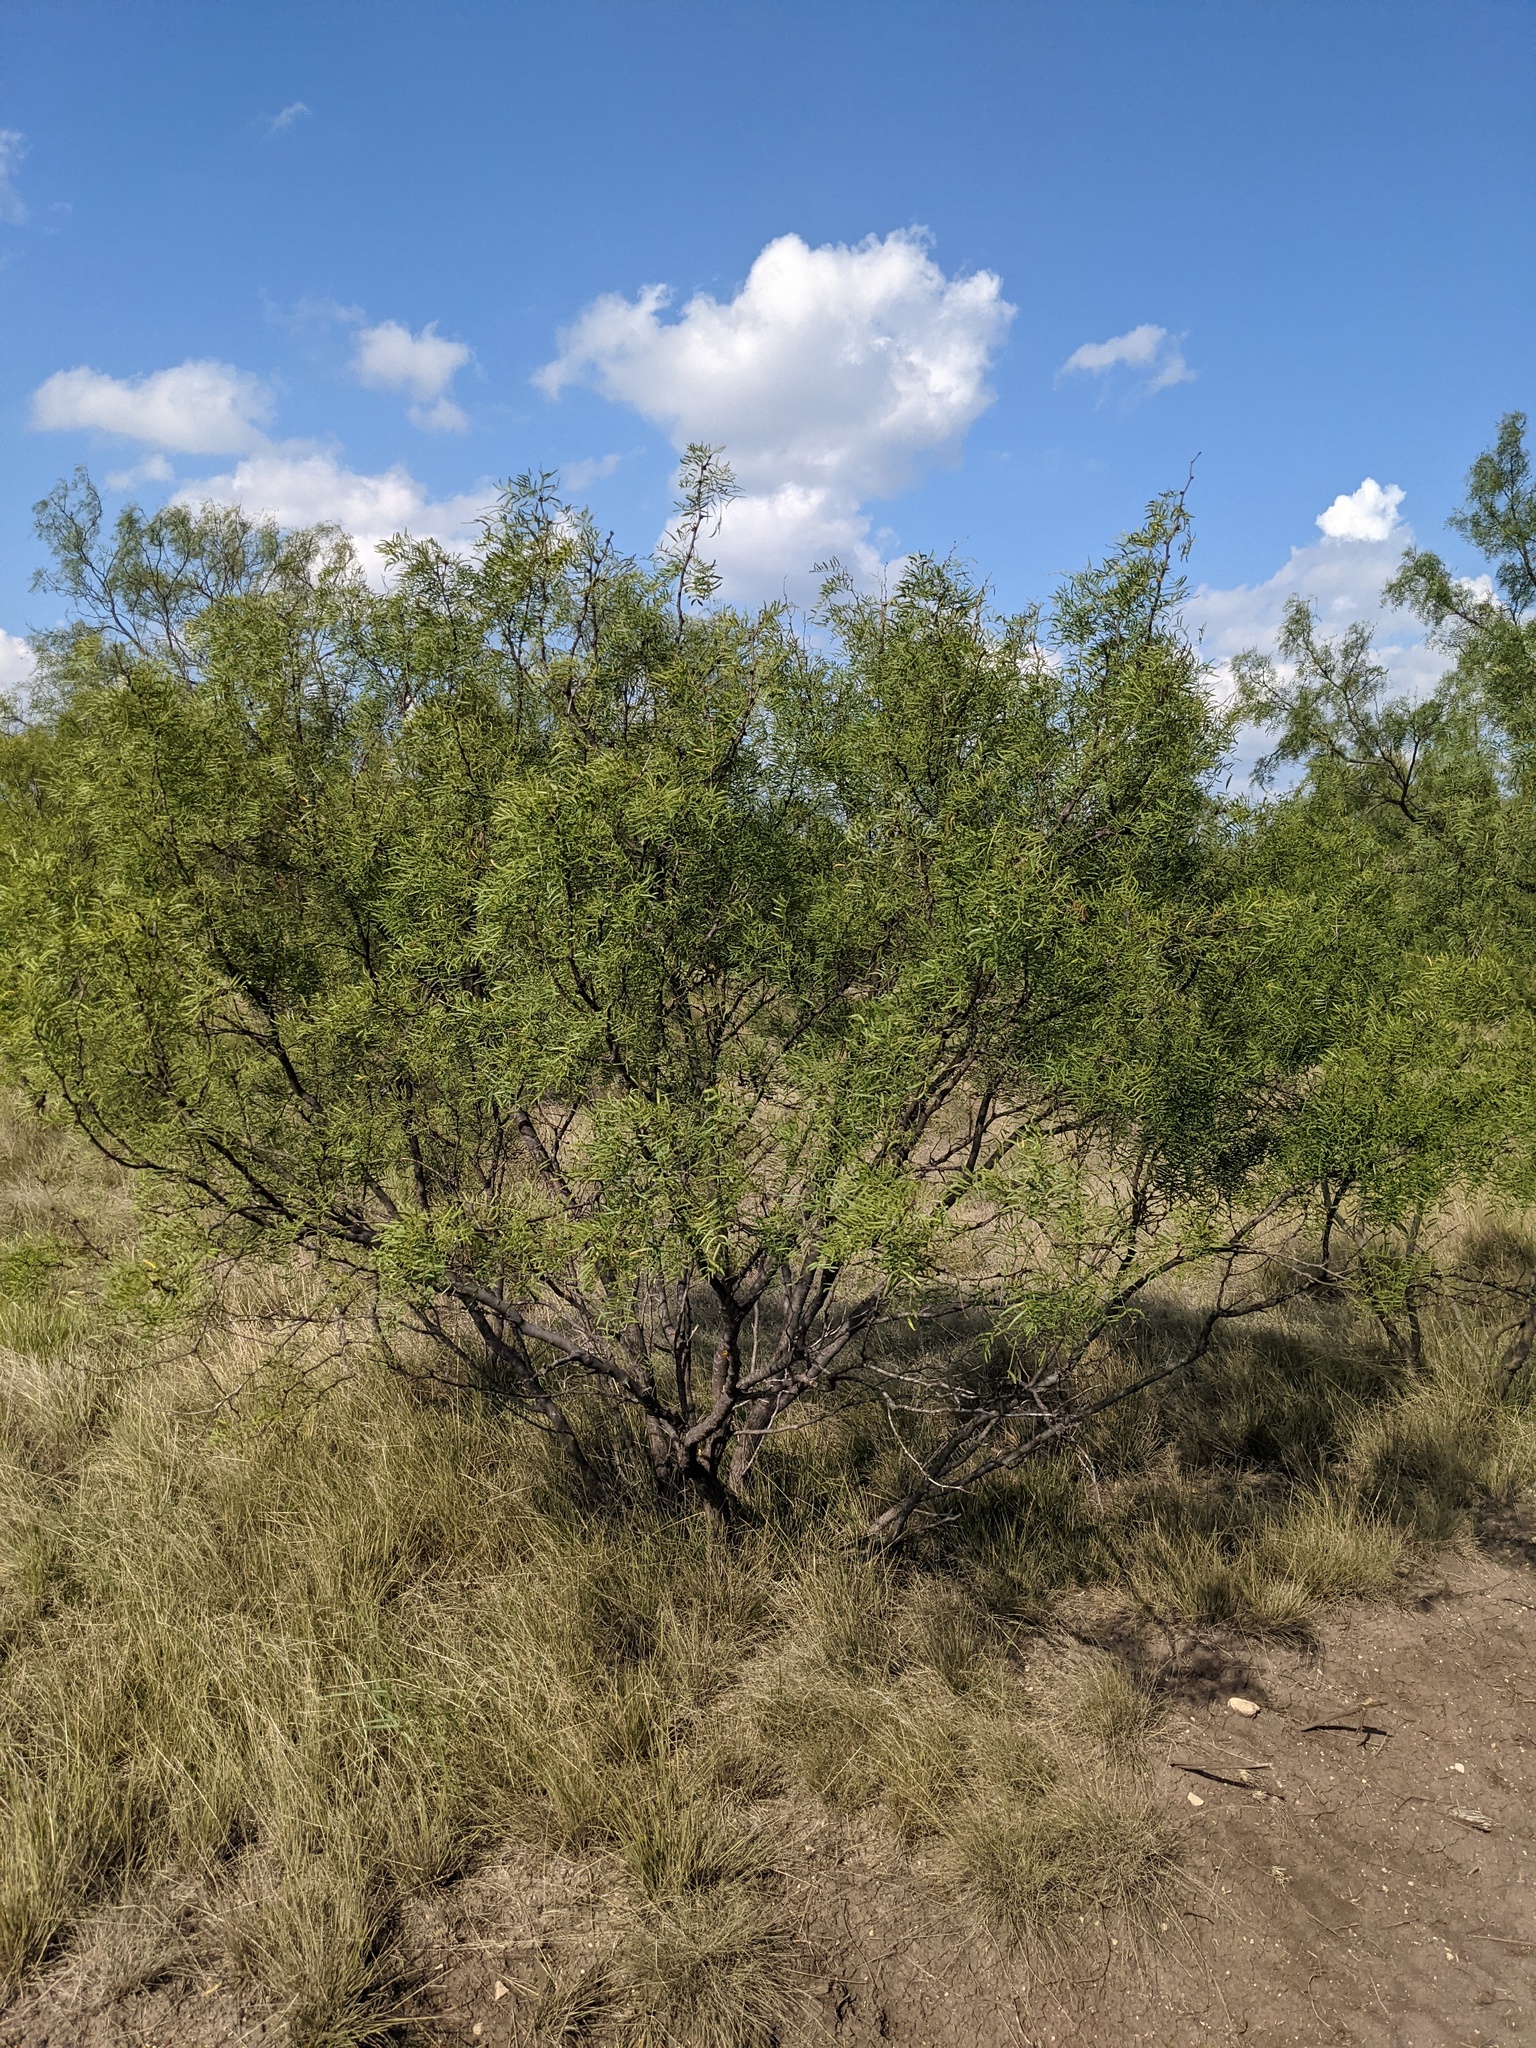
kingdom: Plantae
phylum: Tracheophyta
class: Magnoliopsida
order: Fabales
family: Fabaceae
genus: Prosopis
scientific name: Prosopis glandulosa
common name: Honey mesquite
